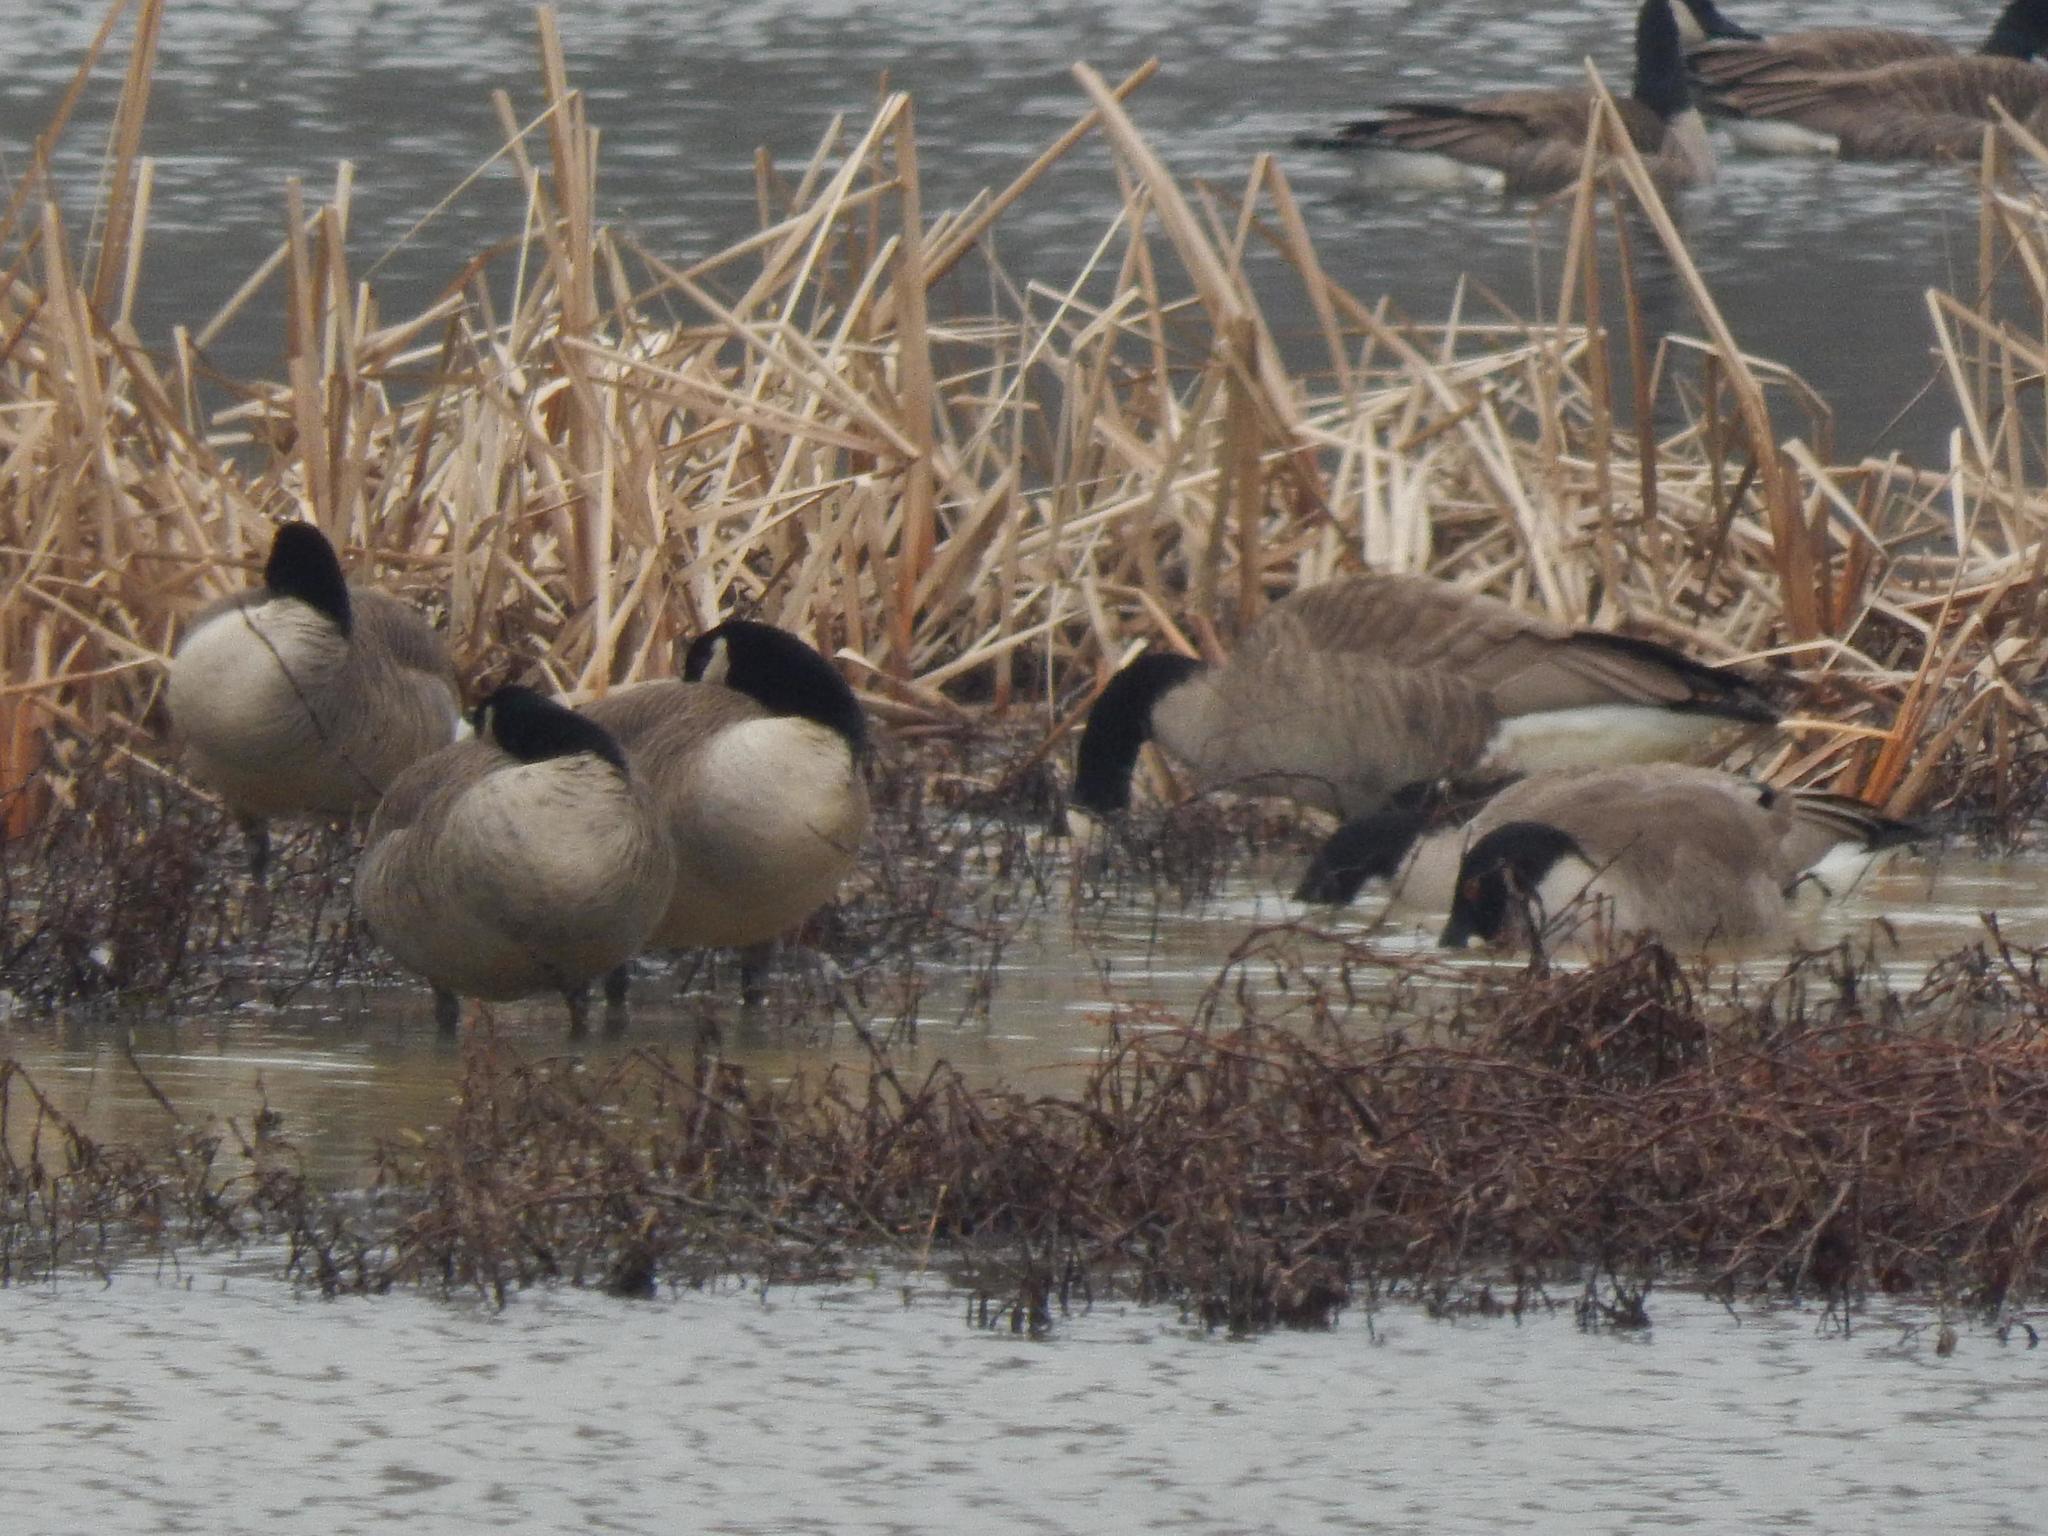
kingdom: Animalia
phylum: Chordata
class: Aves
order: Anseriformes
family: Anatidae
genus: Branta
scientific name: Branta canadensis
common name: Canada goose
